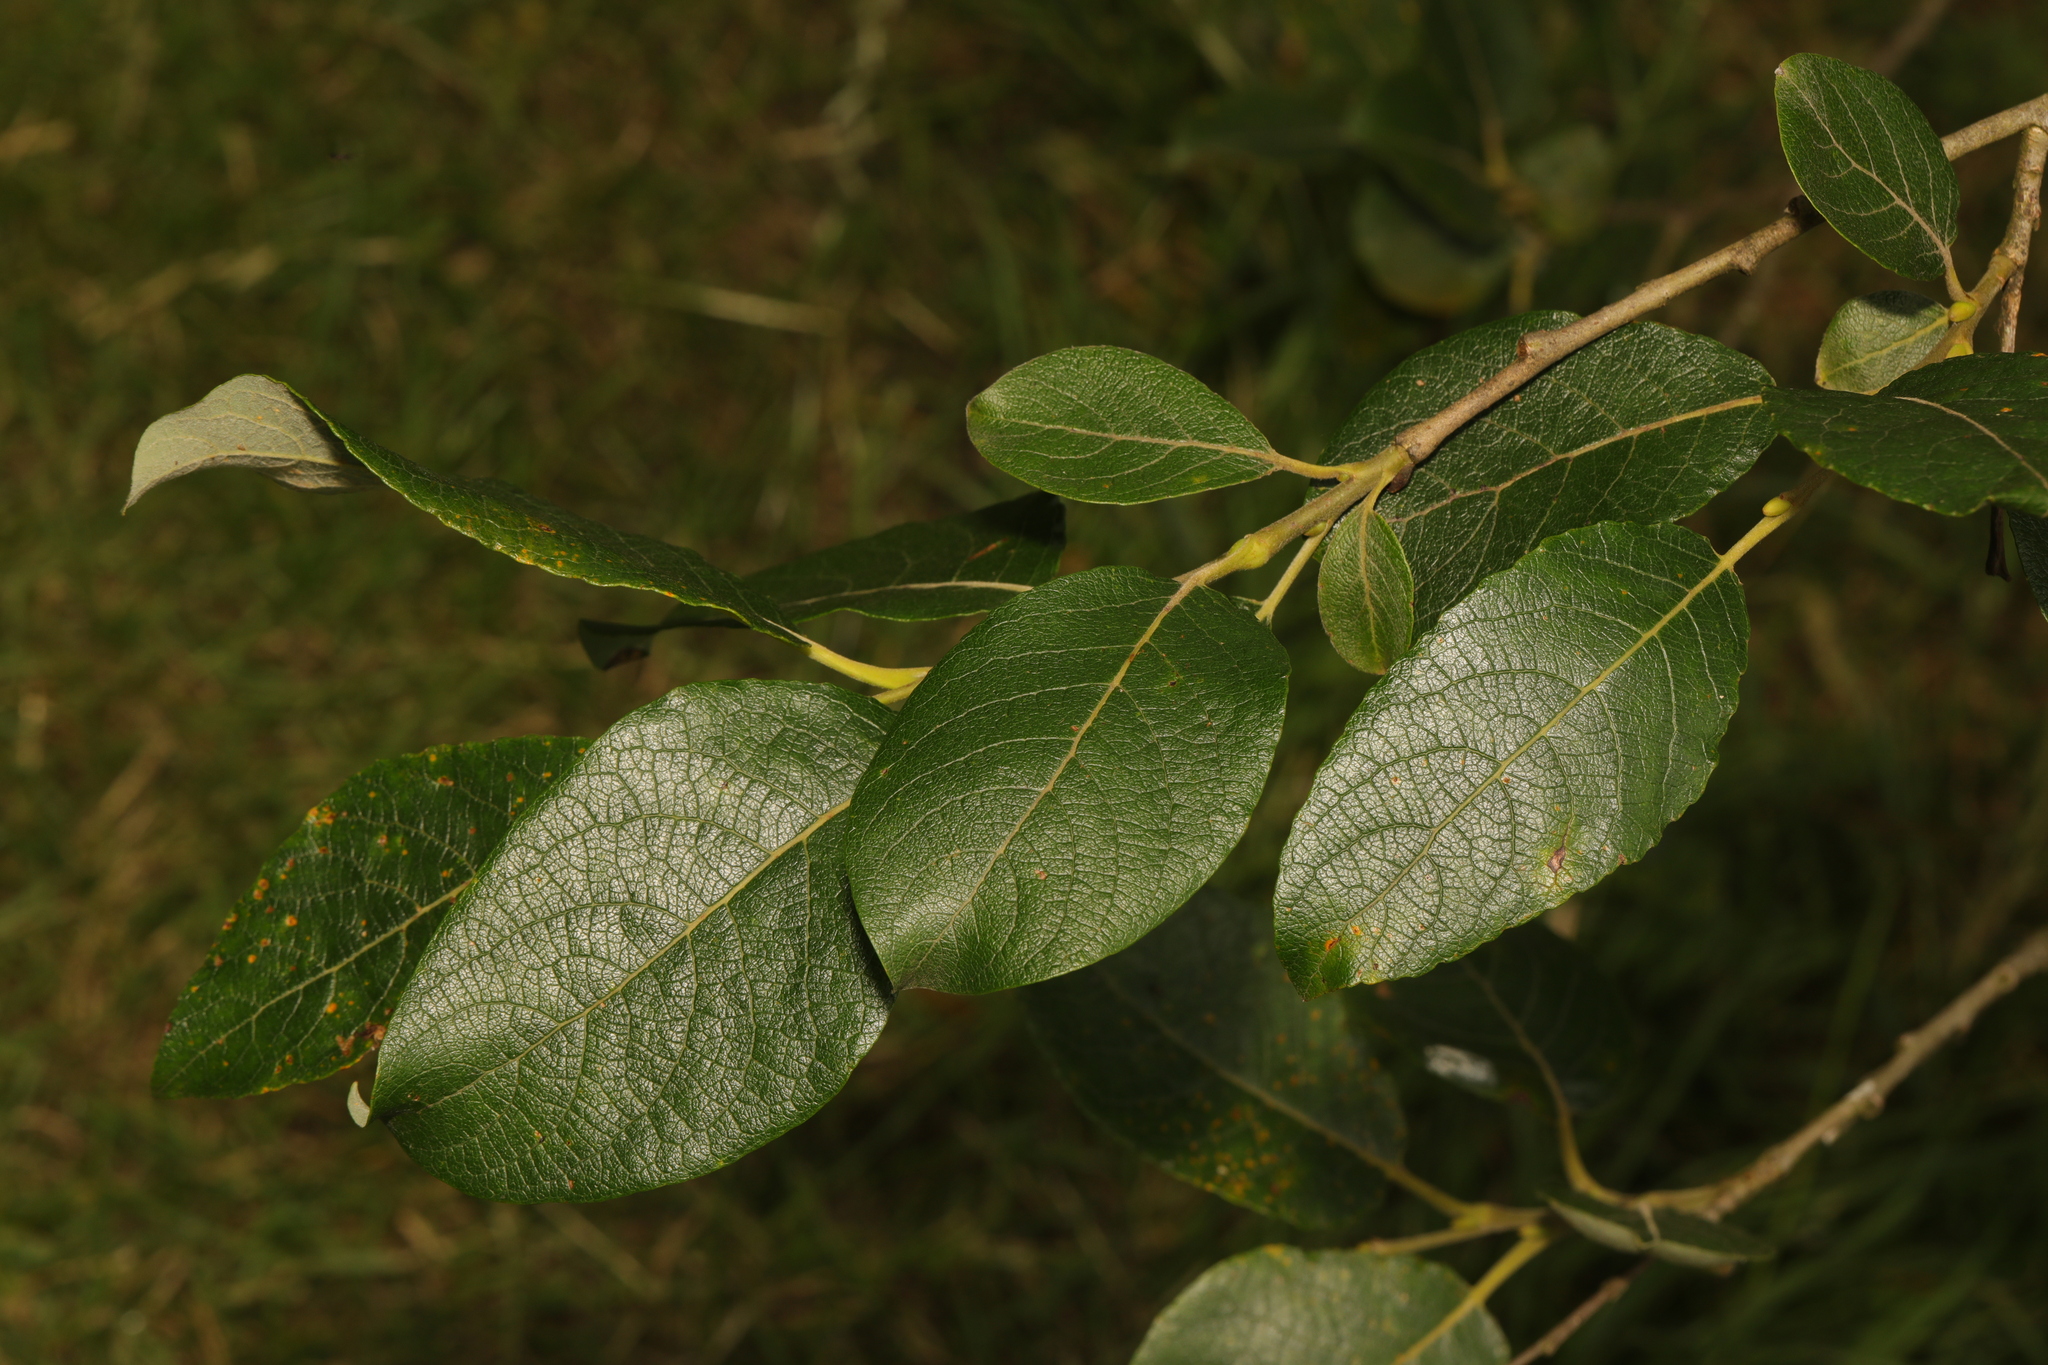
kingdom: Plantae
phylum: Tracheophyta
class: Magnoliopsida
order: Malpighiales
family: Salicaceae
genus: Salix
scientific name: Salix caprea
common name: Goat willow
